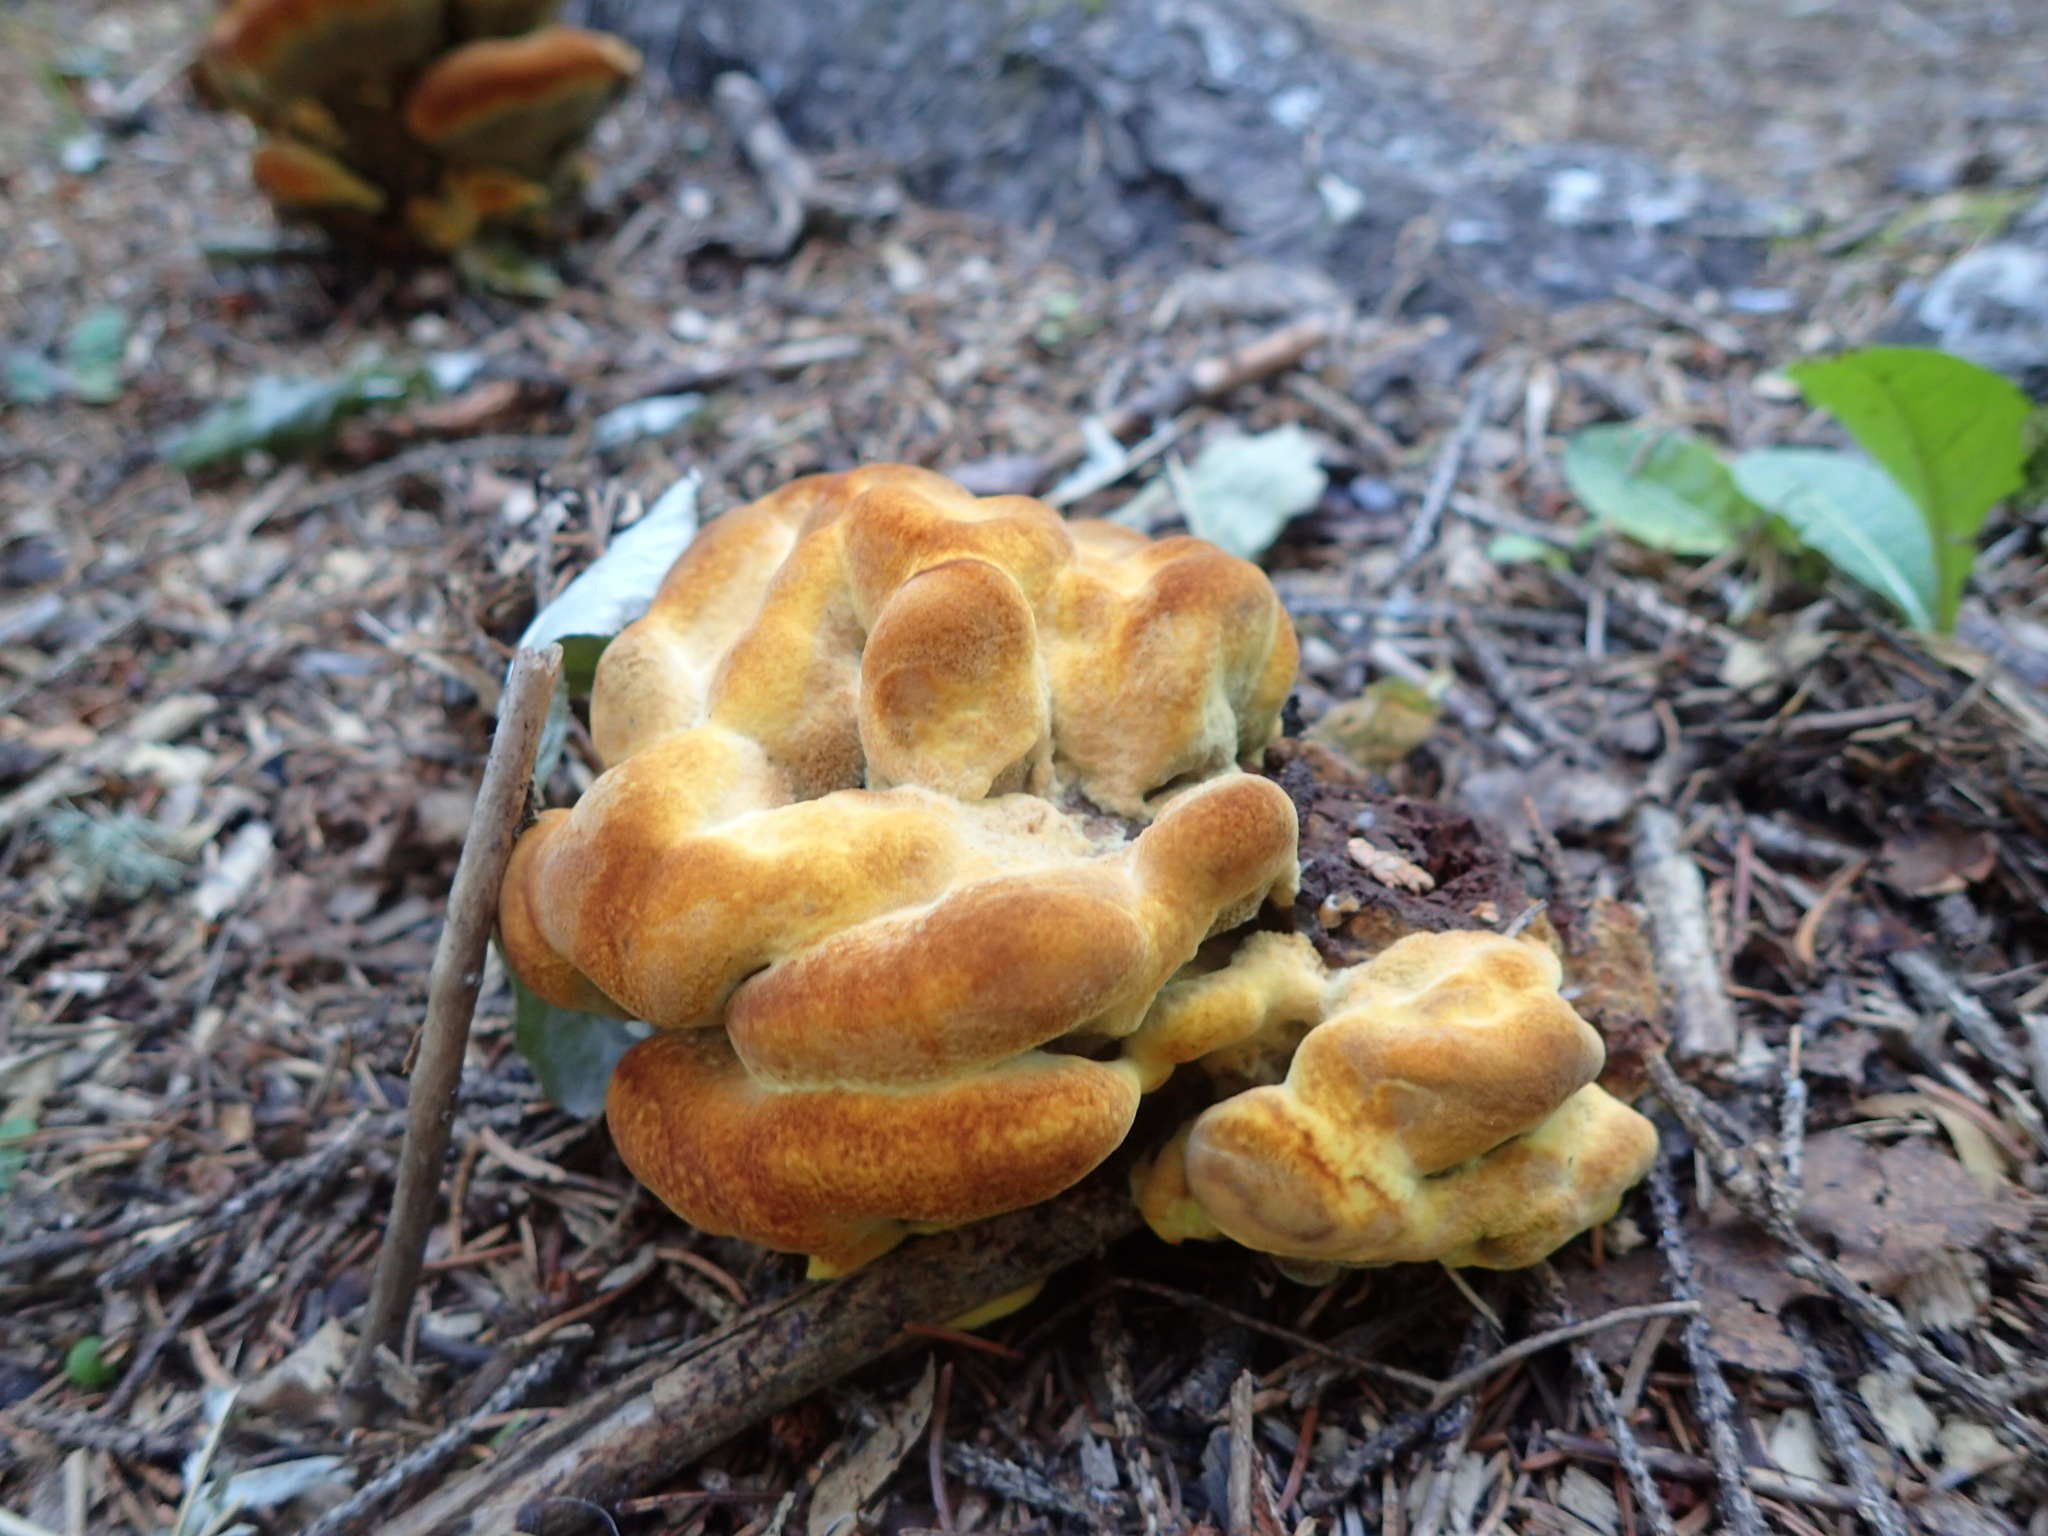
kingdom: Fungi
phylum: Basidiomycota
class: Agaricomycetes
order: Polyporales
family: Laetiporaceae
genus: Phaeolus
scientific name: Phaeolus schweinitzii
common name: Dyer's mazegill
